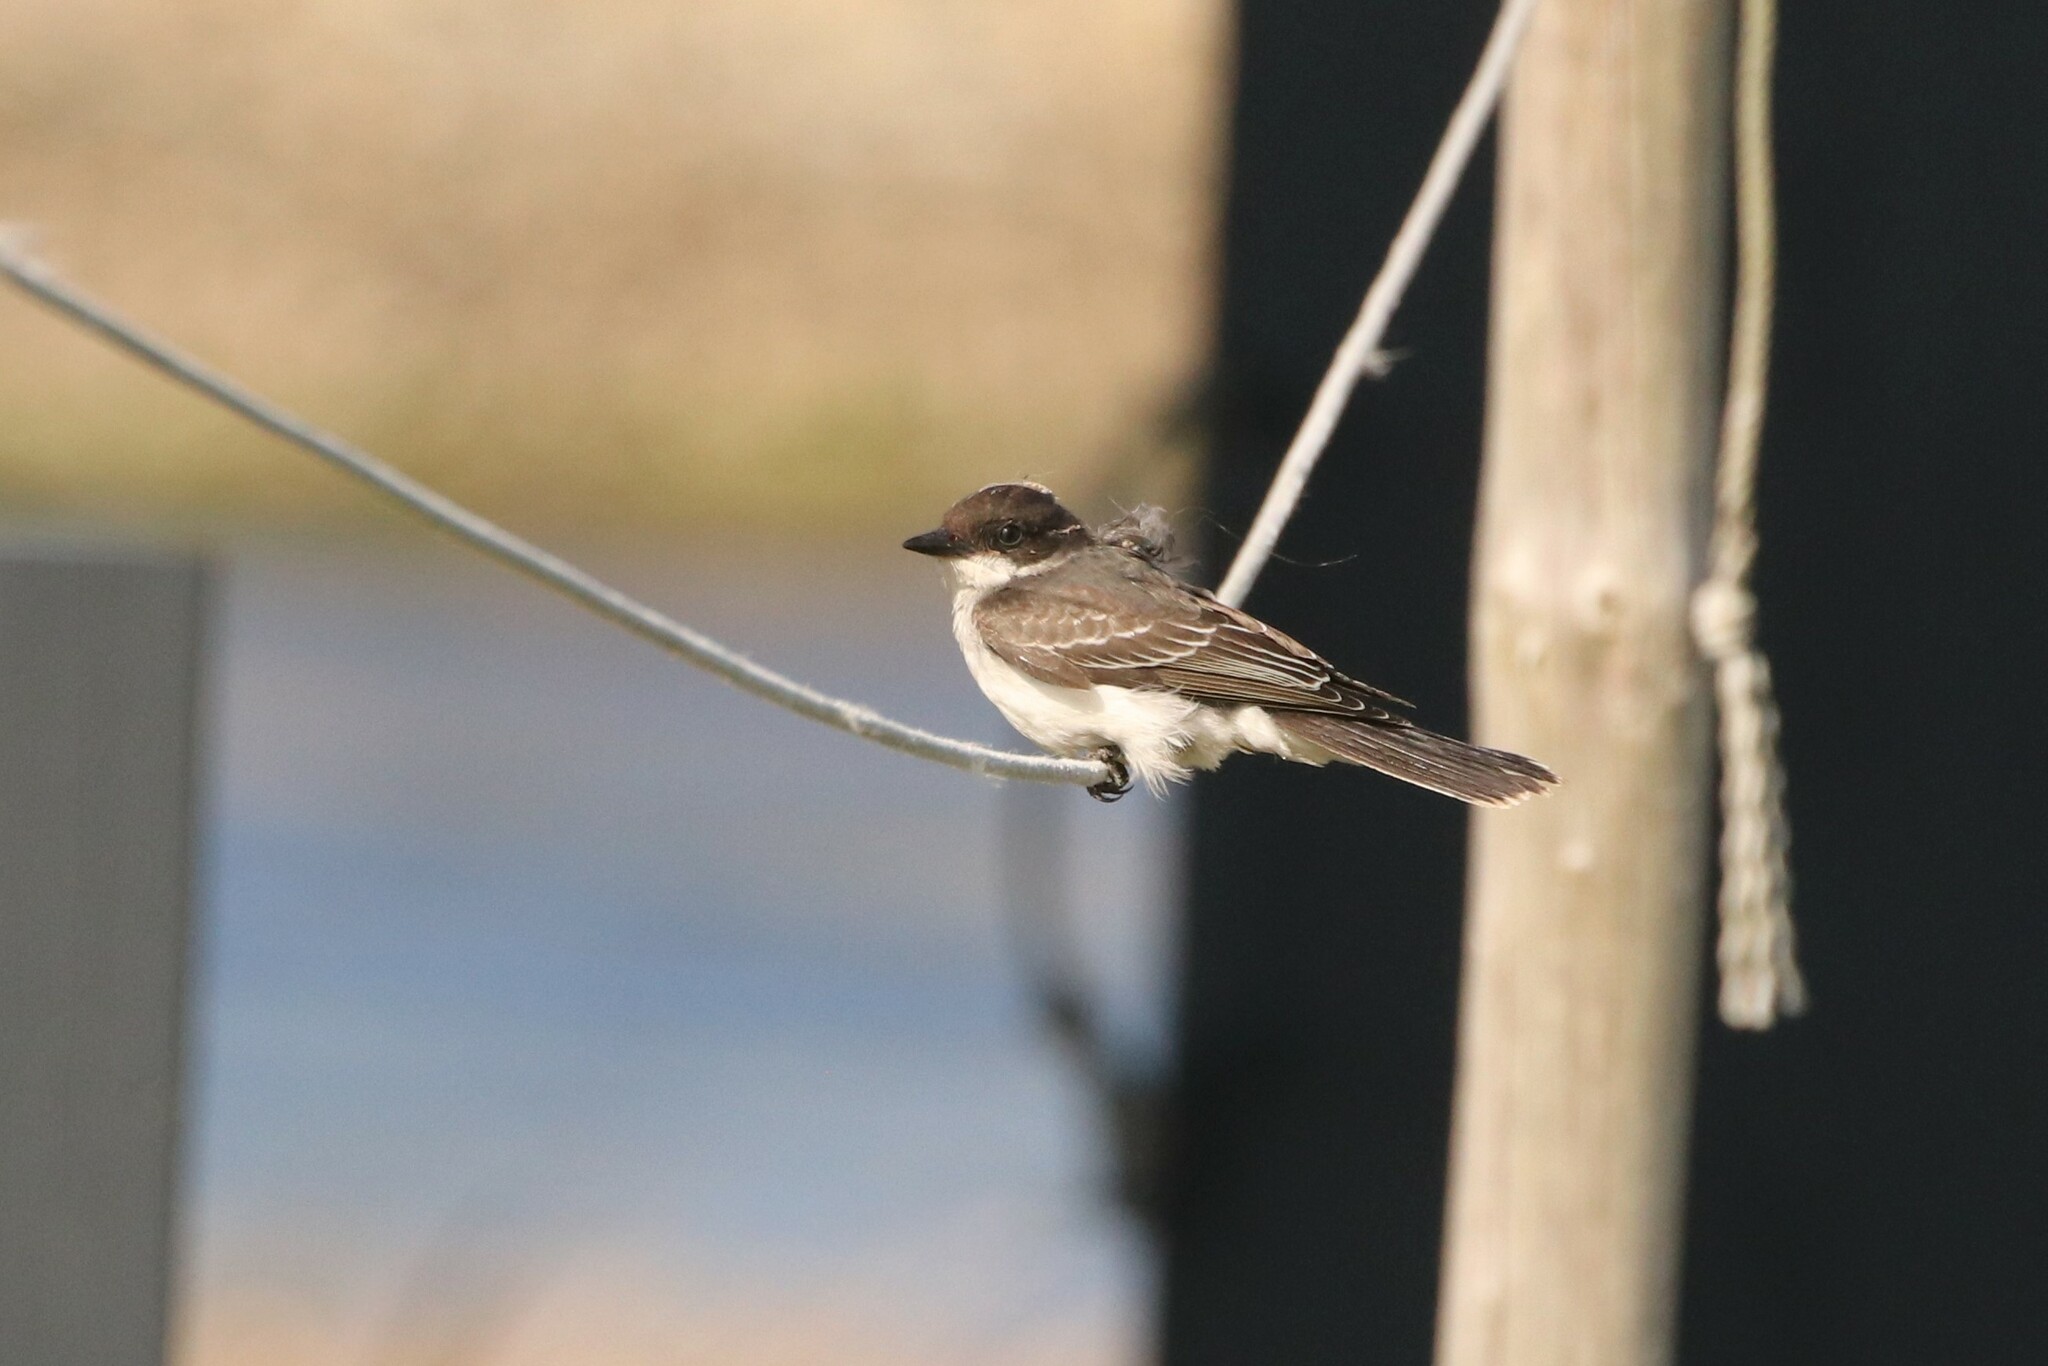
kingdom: Animalia
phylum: Chordata
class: Aves
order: Passeriformes
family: Tyrannidae
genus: Tyrannus
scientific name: Tyrannus tyrannus
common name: Eastern kingbird
